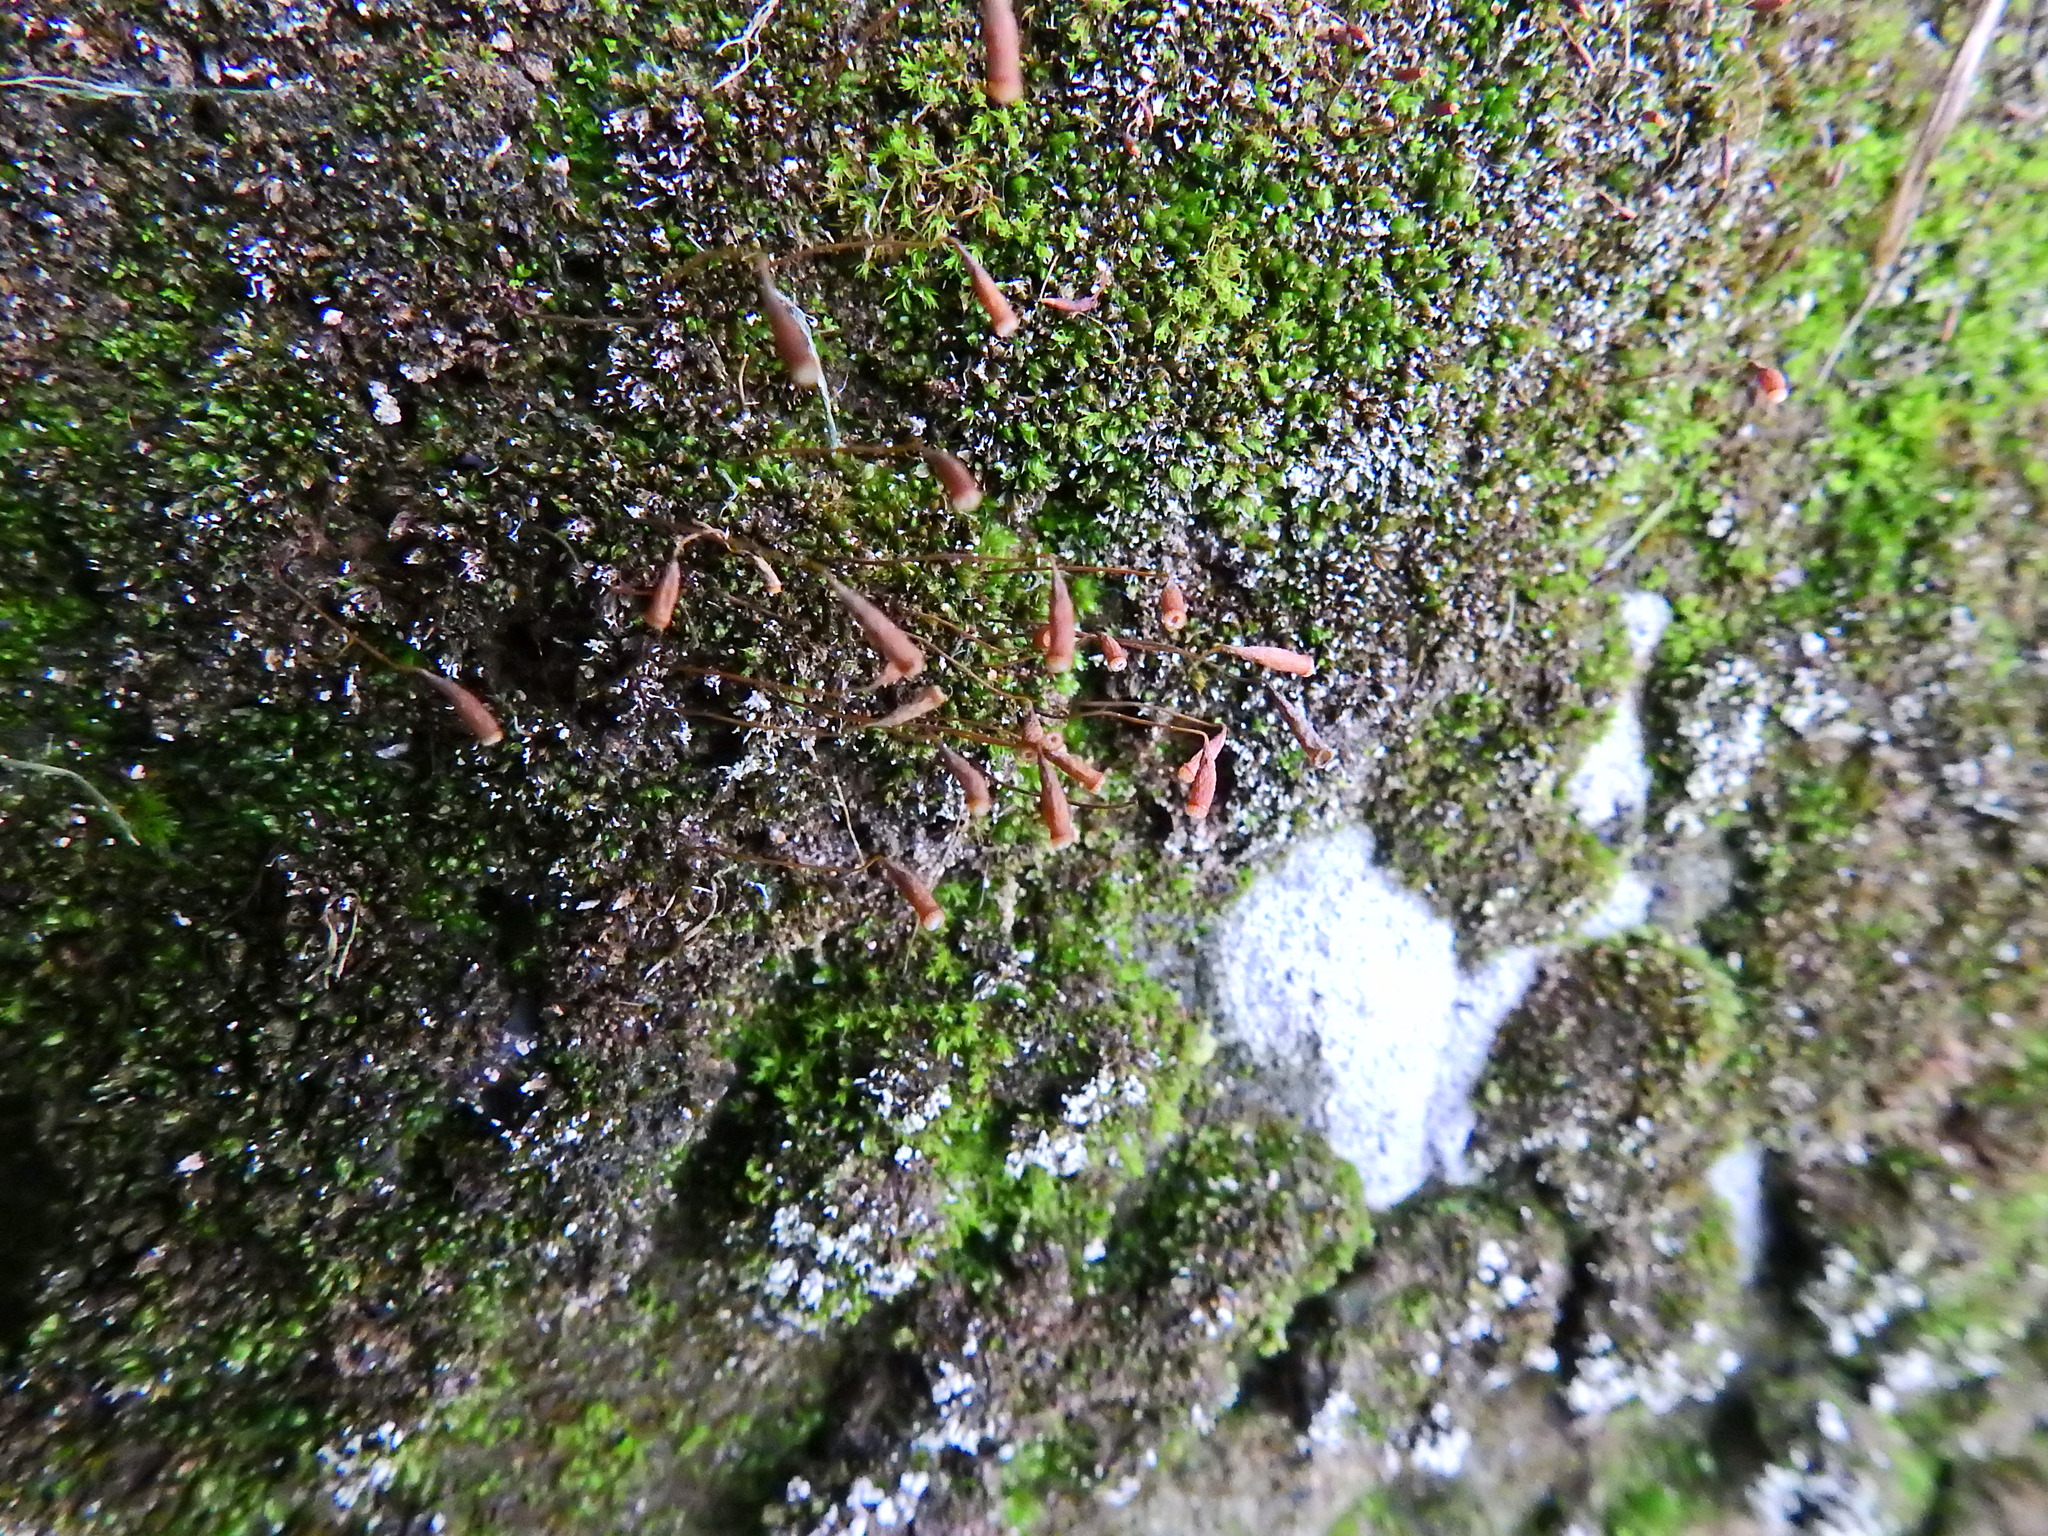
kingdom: Plantae
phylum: Bryophyta
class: Bryopsida
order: Bryales
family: Bryaceae
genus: Rosulabryum
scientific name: Rosulabryum capillare
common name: Capillary thread-moss
